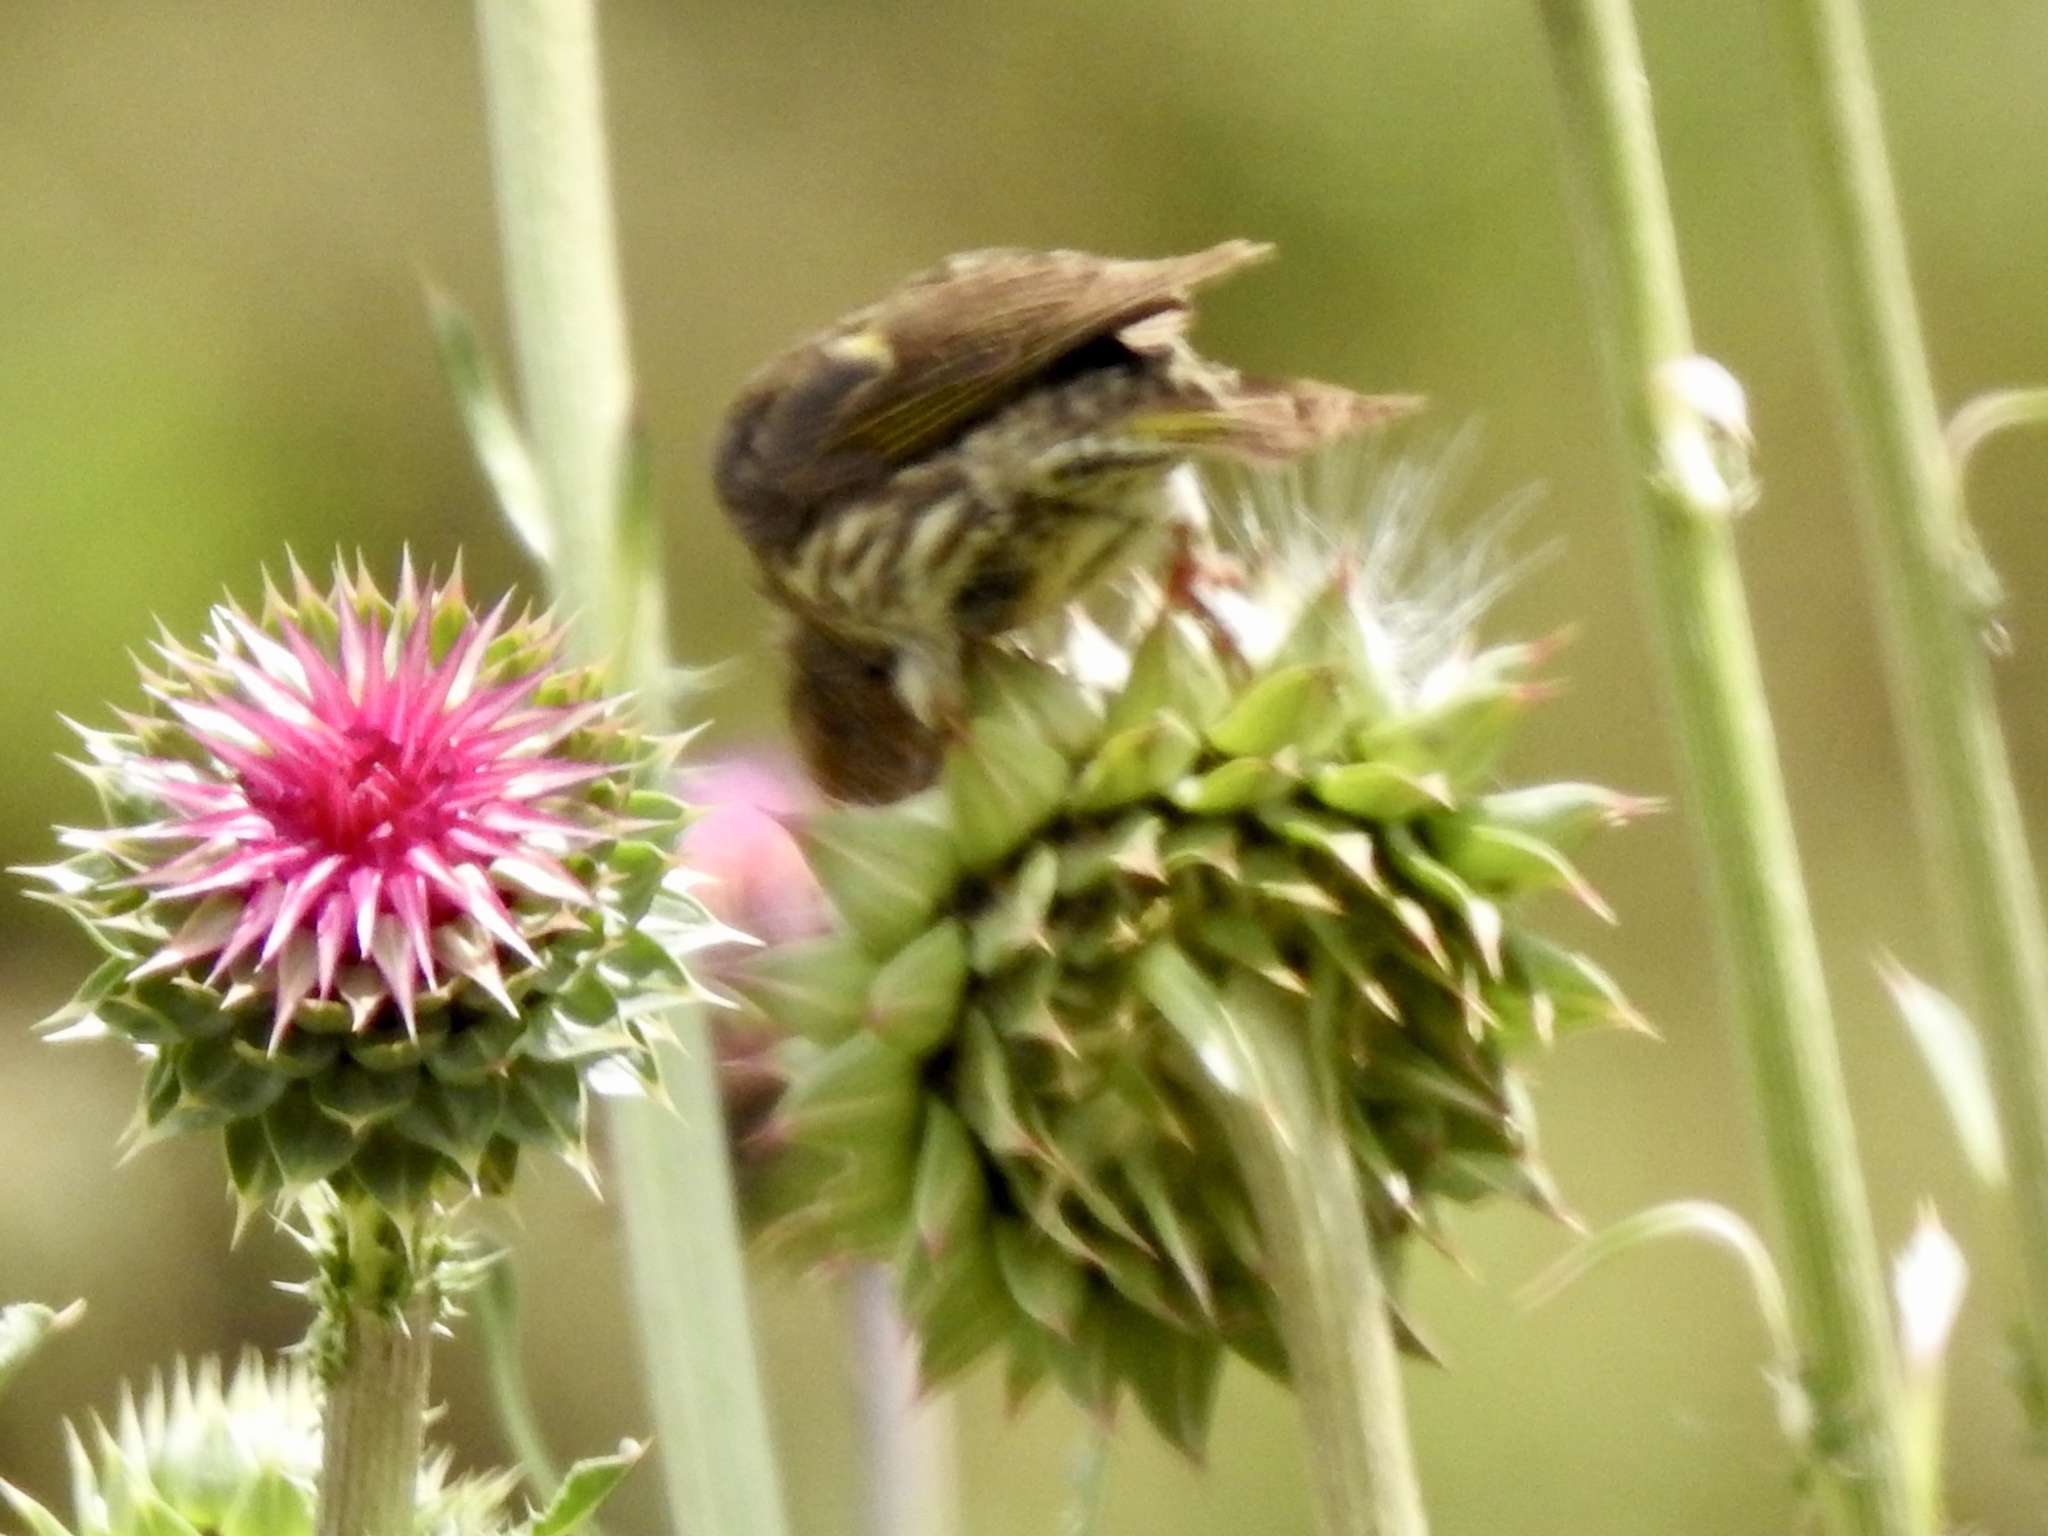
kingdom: Animalia
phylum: Chordata
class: Aves
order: Passeriformes
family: Fringillidae
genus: Spinus
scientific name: Spinus pinus
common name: Pine siskin
